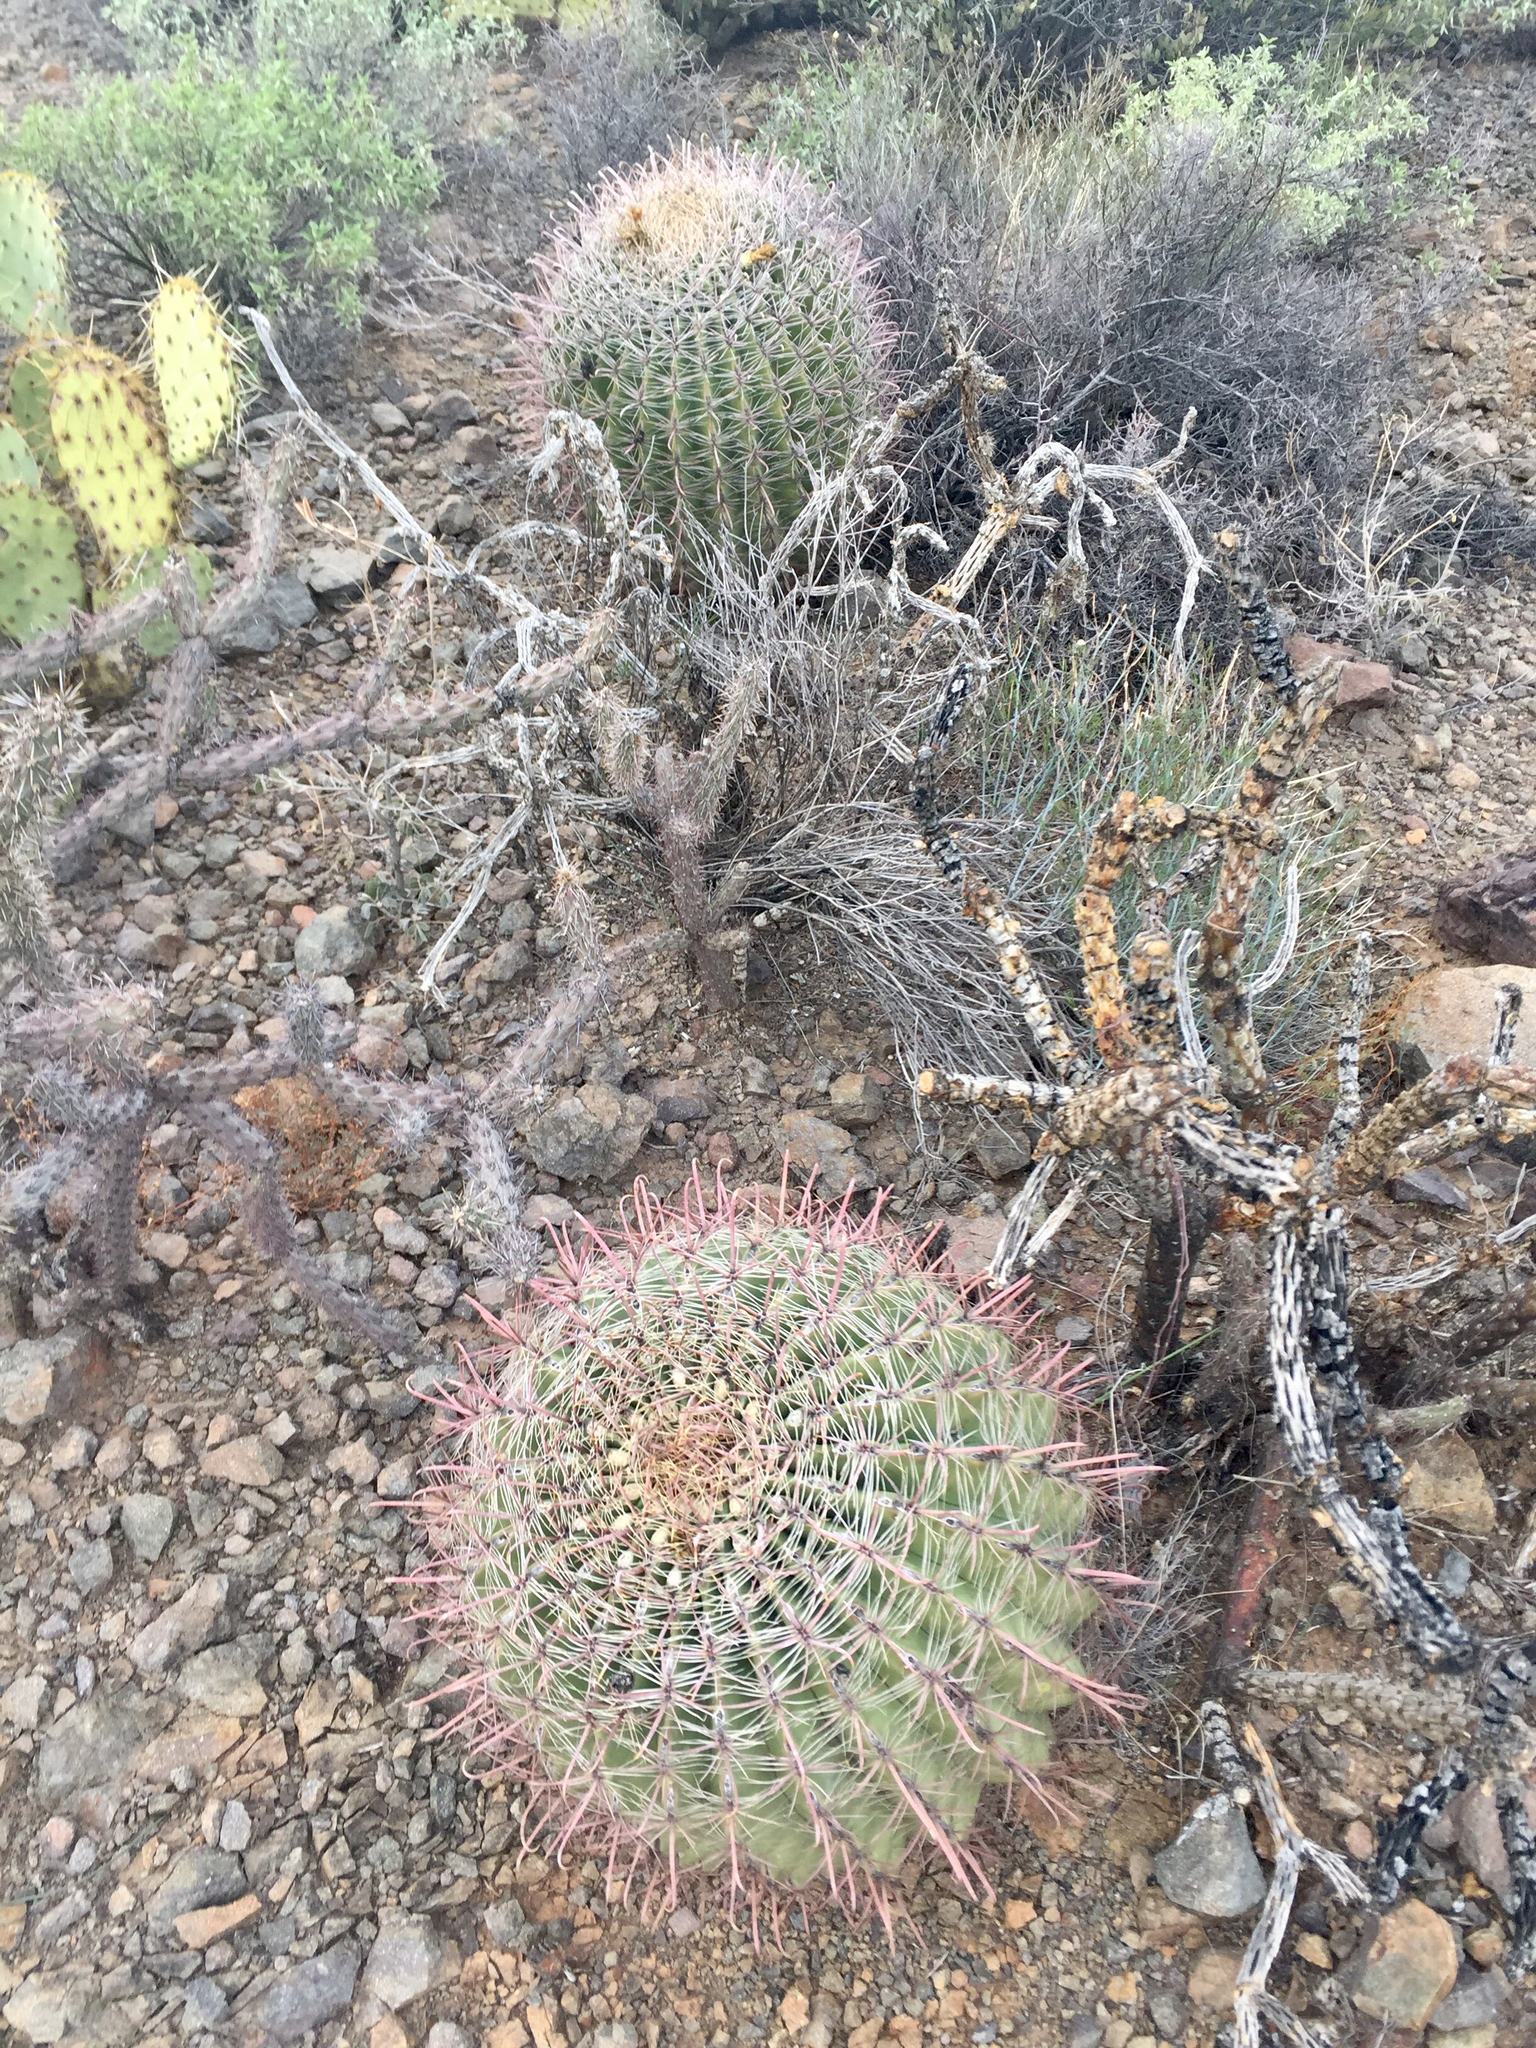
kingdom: Plantae
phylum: Tracheophyta
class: Magnoliopsida
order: Caryophyllales
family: Cactaceae
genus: Ferocactus
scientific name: Ferocactus wislizeni
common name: Candy barrel cactus
